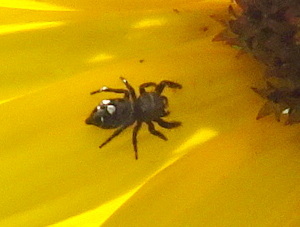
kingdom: Animalia
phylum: Arthropoda
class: Arachnida
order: Araneae
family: Salticidae
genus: Phidippus
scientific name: Phidippus audax
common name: Bold jumper
